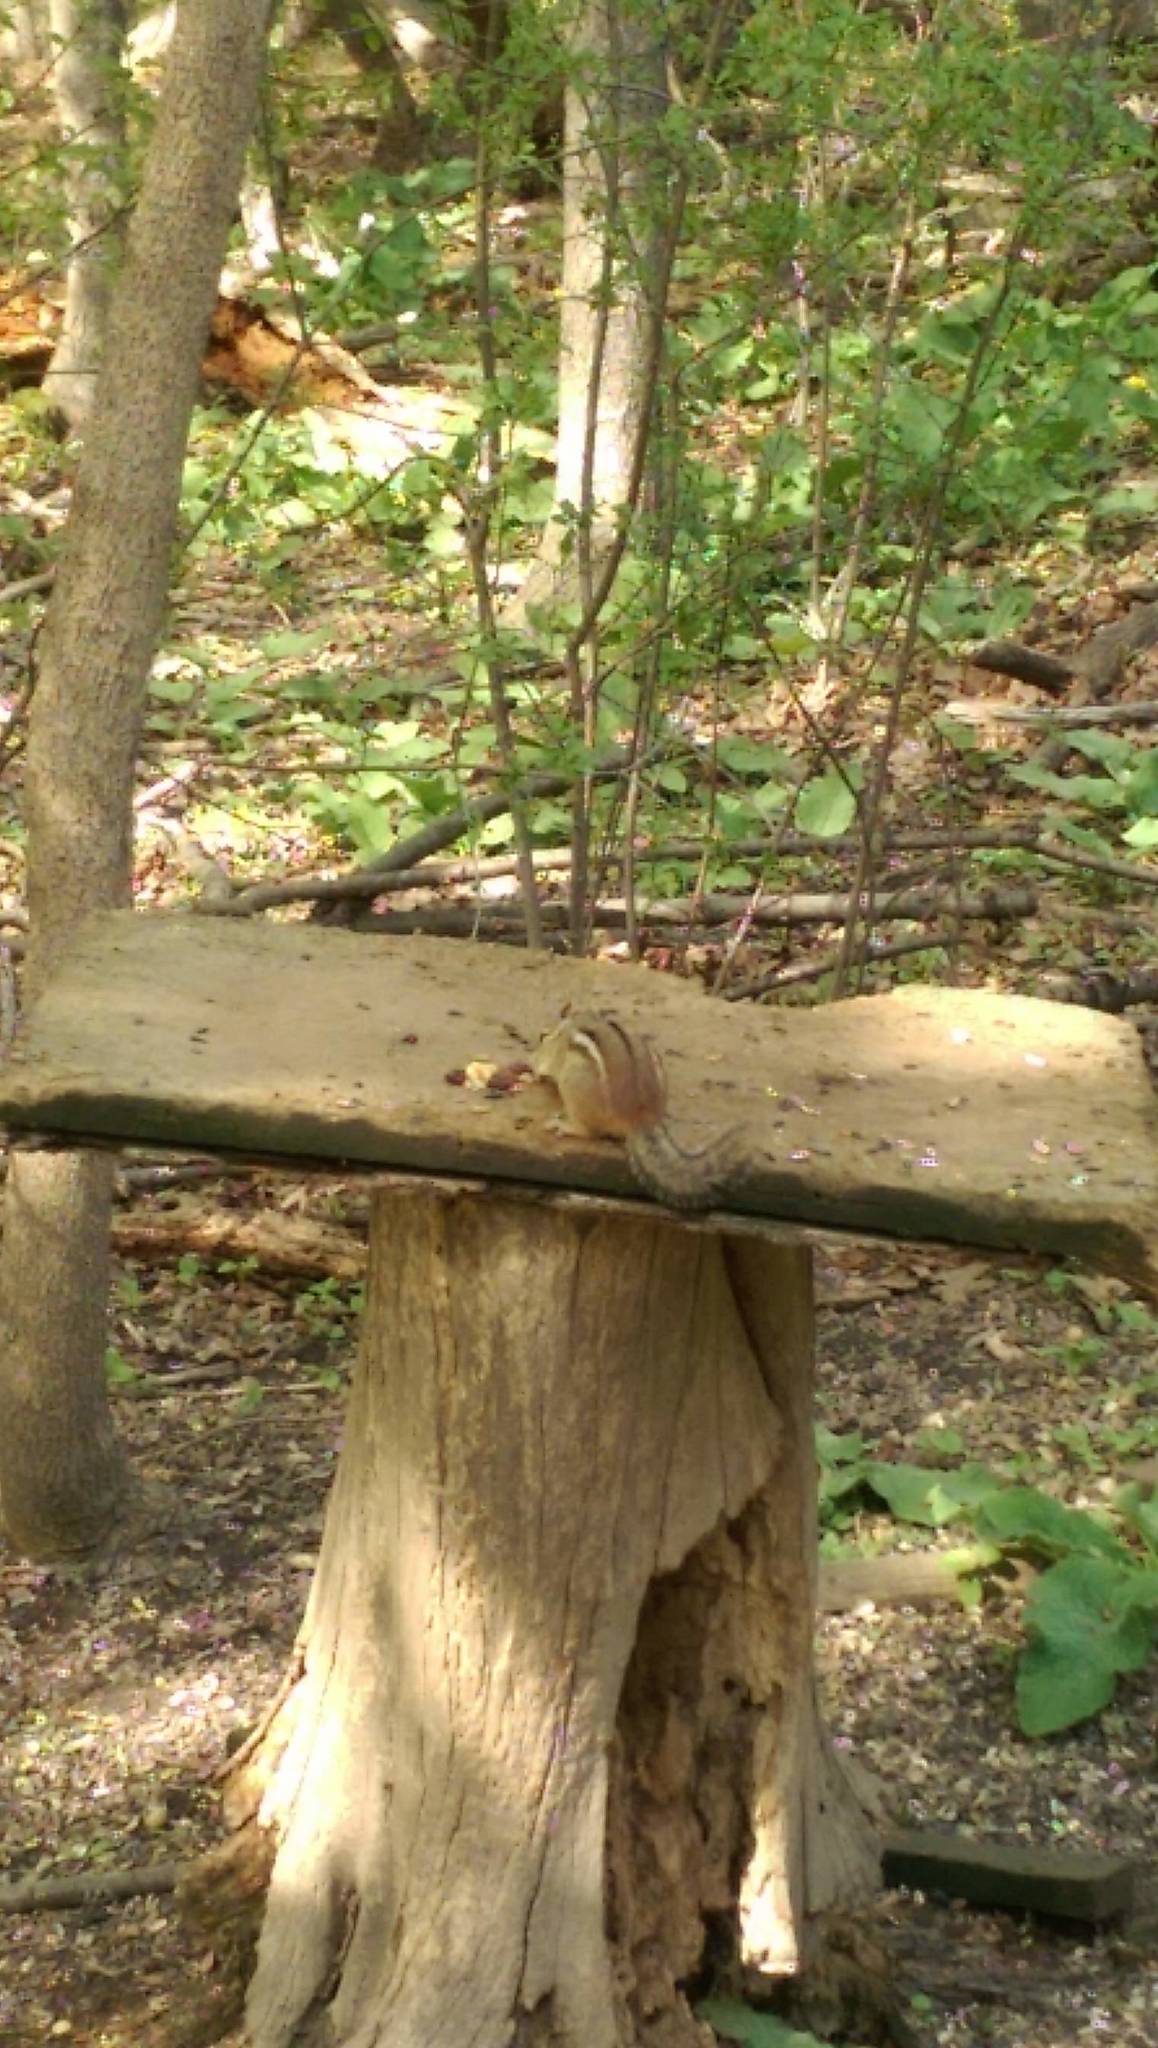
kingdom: Animalia
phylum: Chordata
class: Mammalia
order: Rodentia
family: Sciuridae
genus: Tamias
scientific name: Tamias striatus
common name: Eastern chipmunk
